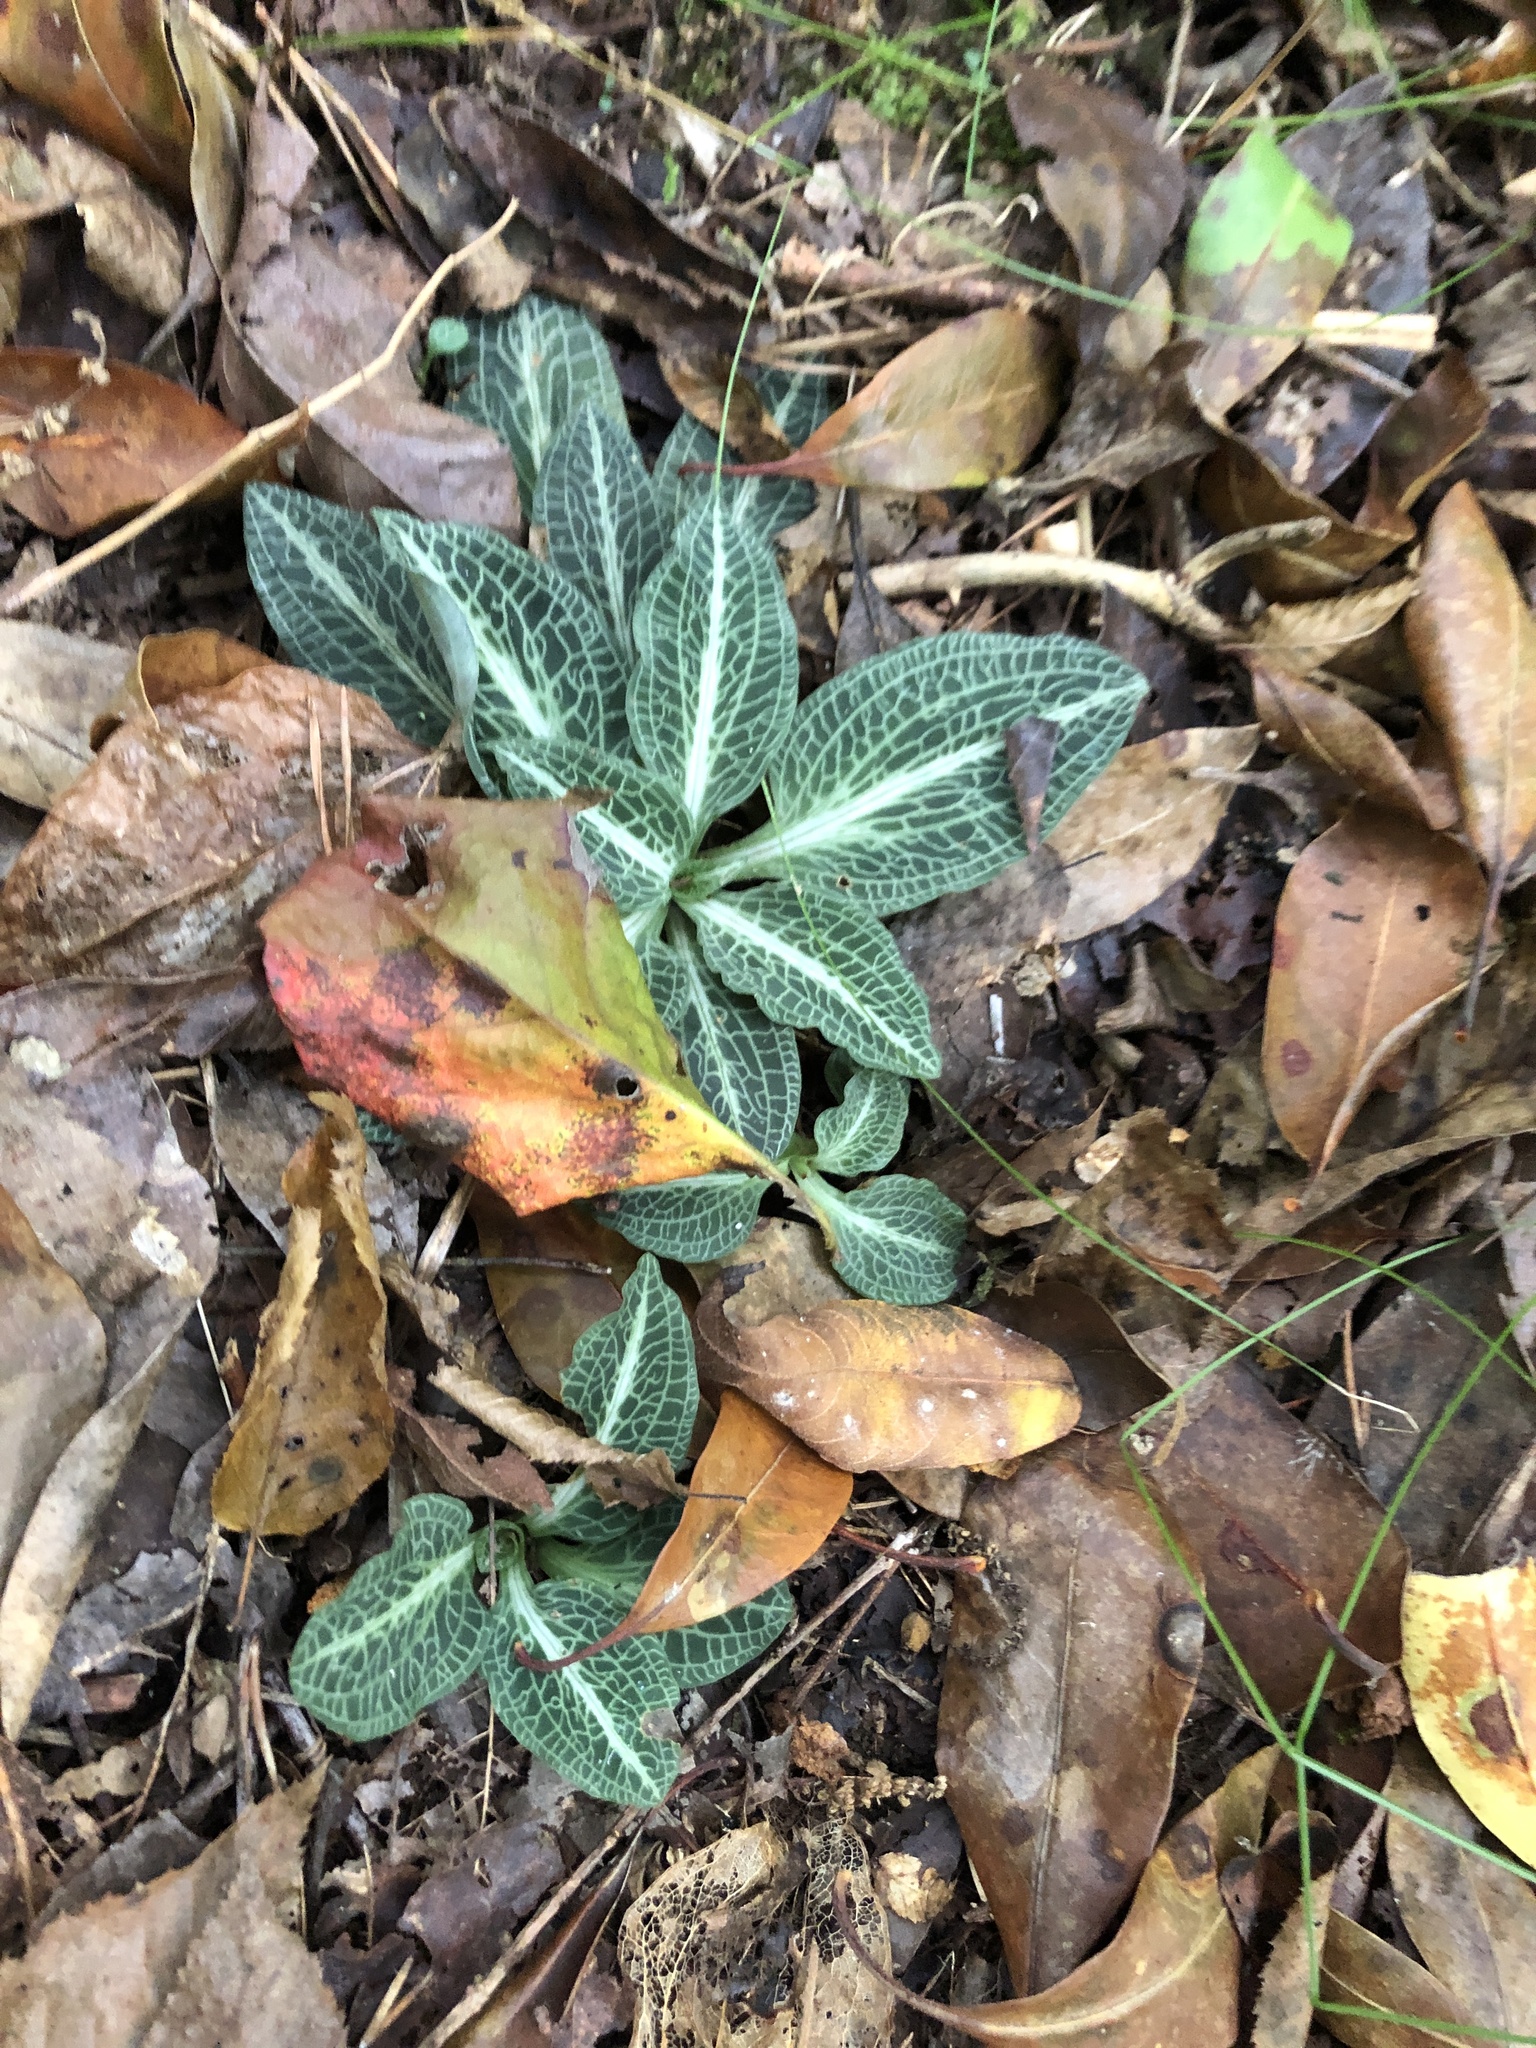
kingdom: Plantae
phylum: Tracheophyta
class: Magnoliopsida
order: Ericales
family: Ericaceae
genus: Chimaphila
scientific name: Chimaphila maculata
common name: Spotted pipsissewa
